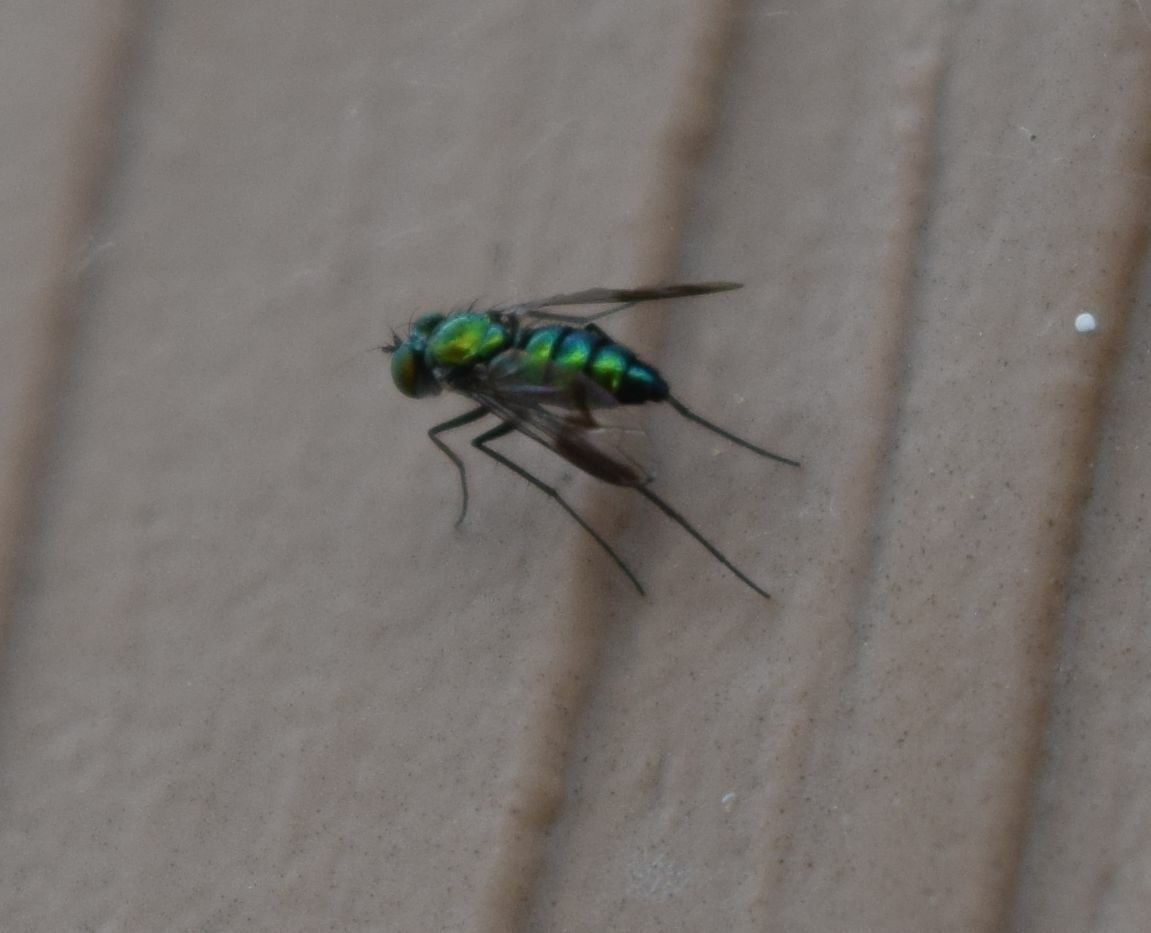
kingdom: Animalia
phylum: Arthropoda
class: Insecta
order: Diptera
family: Dolichopodidae
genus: Condylostylus
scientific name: Condylostylus patibulatus
